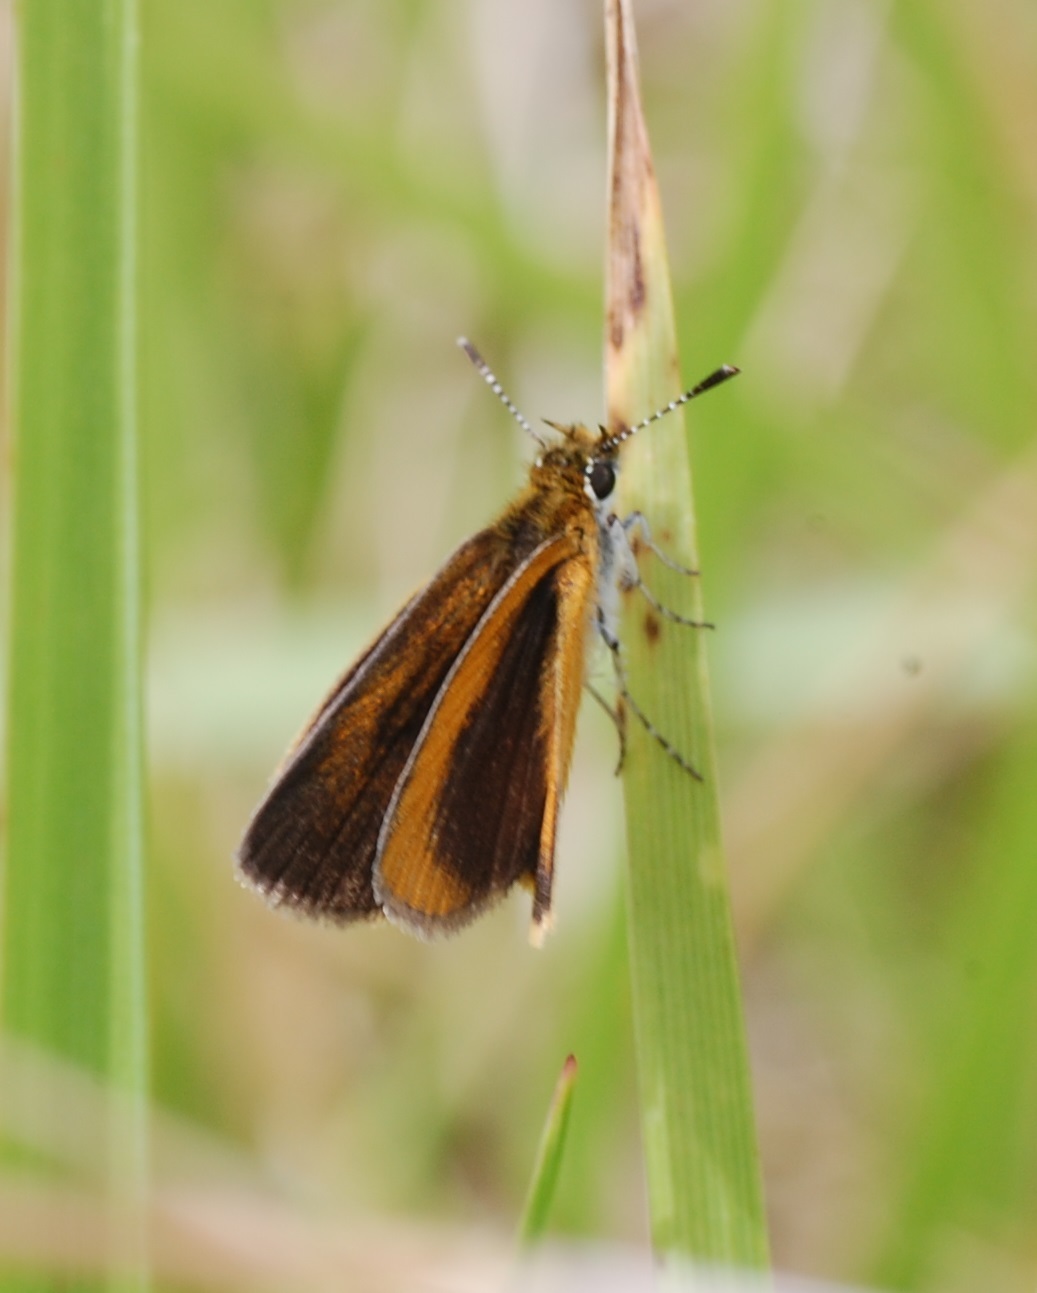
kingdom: Animalia
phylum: Arthropoda
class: Insecta
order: Lepidoptera
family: Hesperiidae
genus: Ancyloxypha
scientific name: Ancyloxypha numitor
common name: Least skipper
